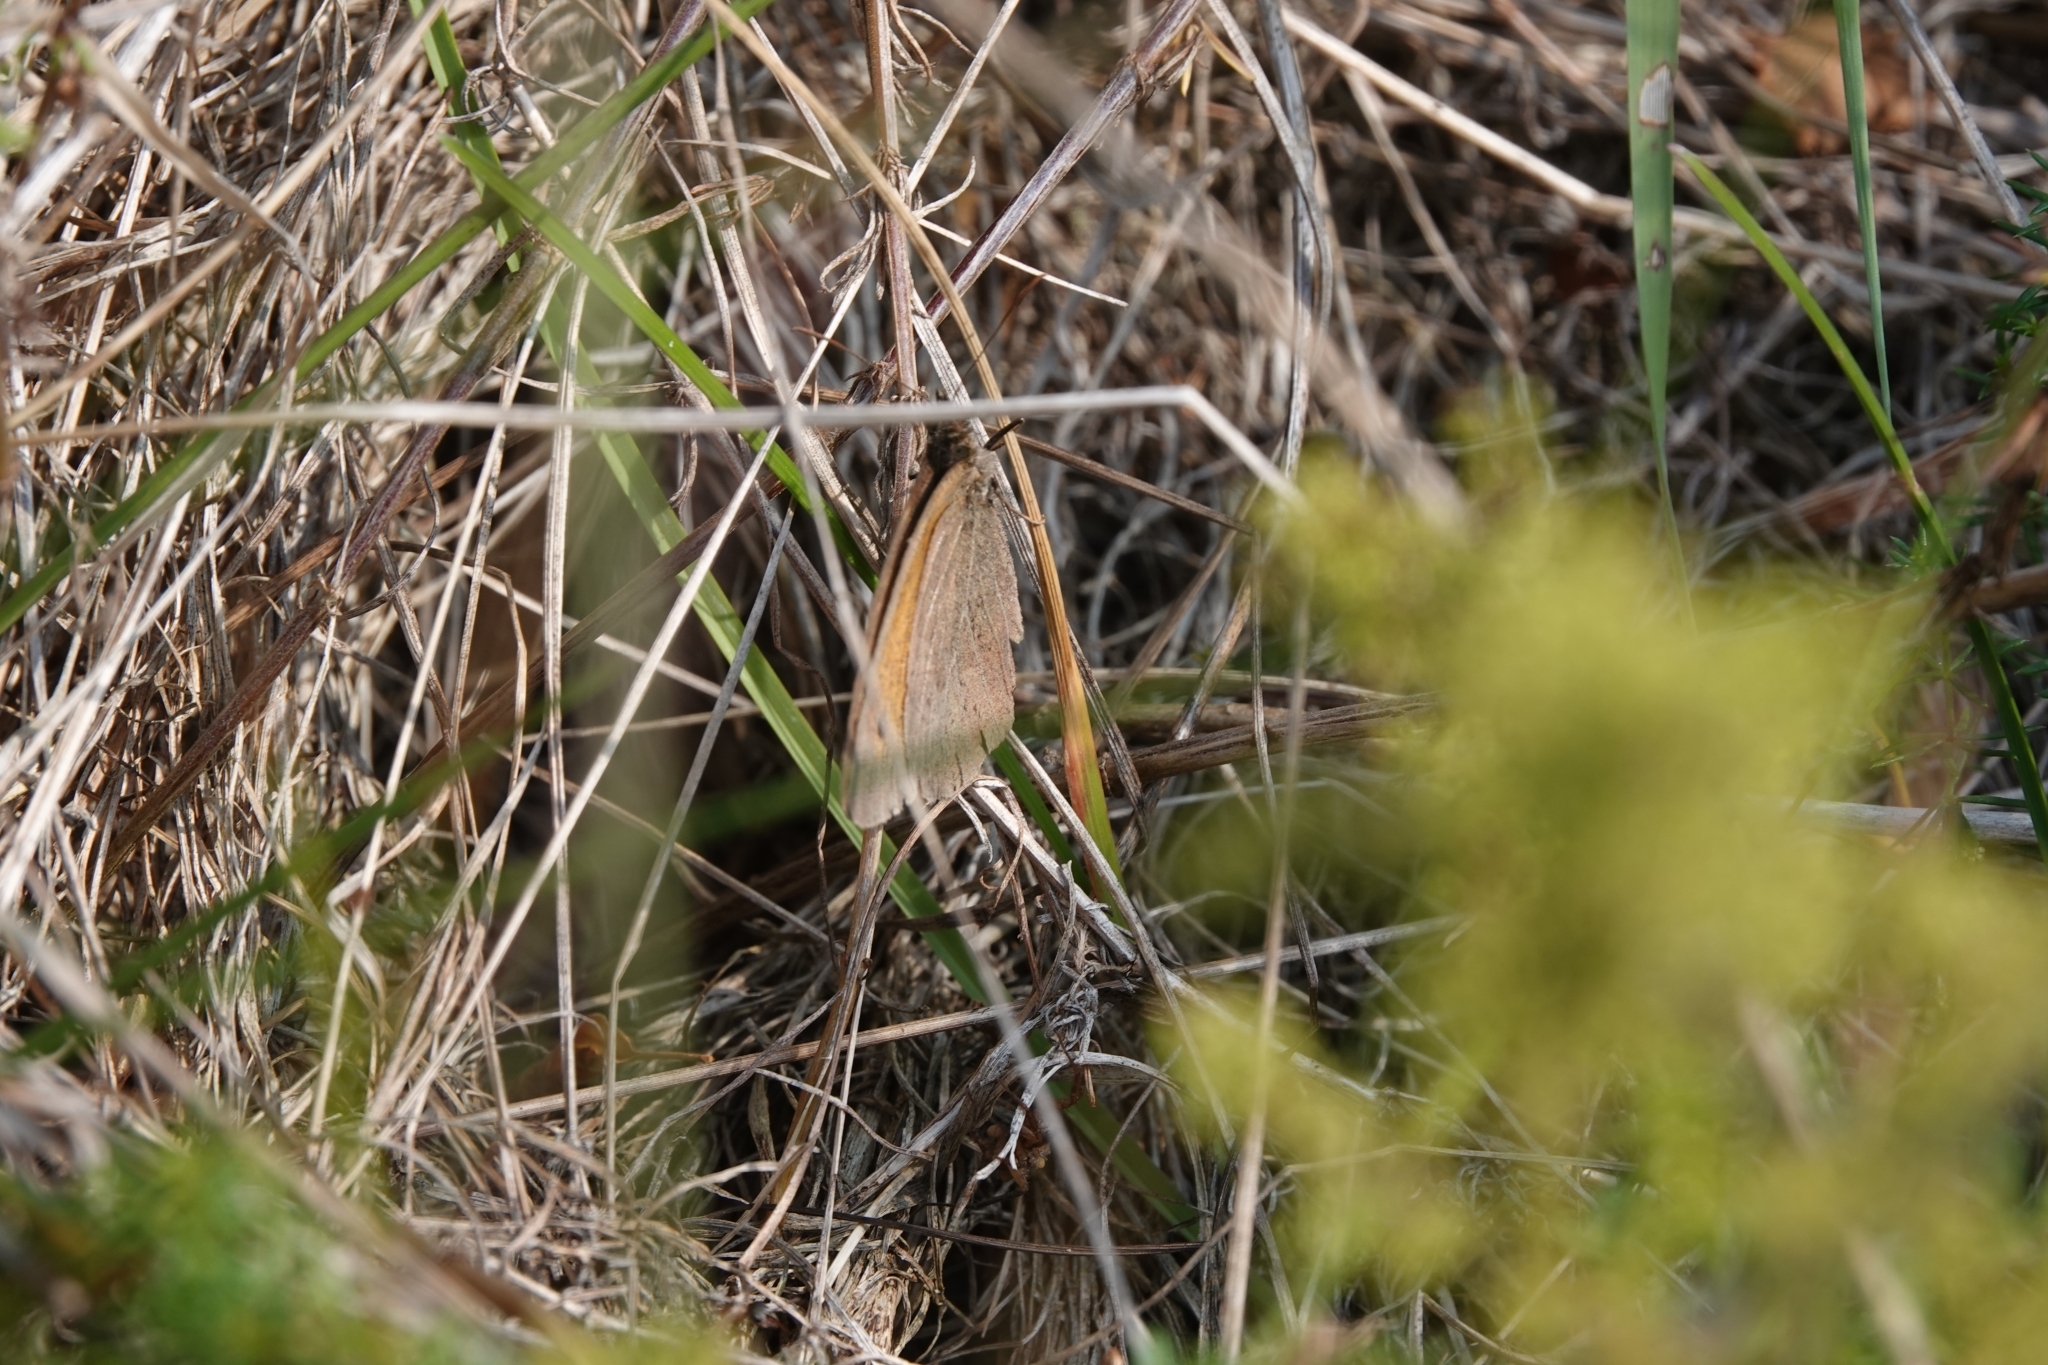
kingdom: Animalia
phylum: Arthropoda
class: Insecta
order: Lepidoptera
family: Nymphalidae
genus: Maniola
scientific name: Maniola jurtina
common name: Meadow brown
